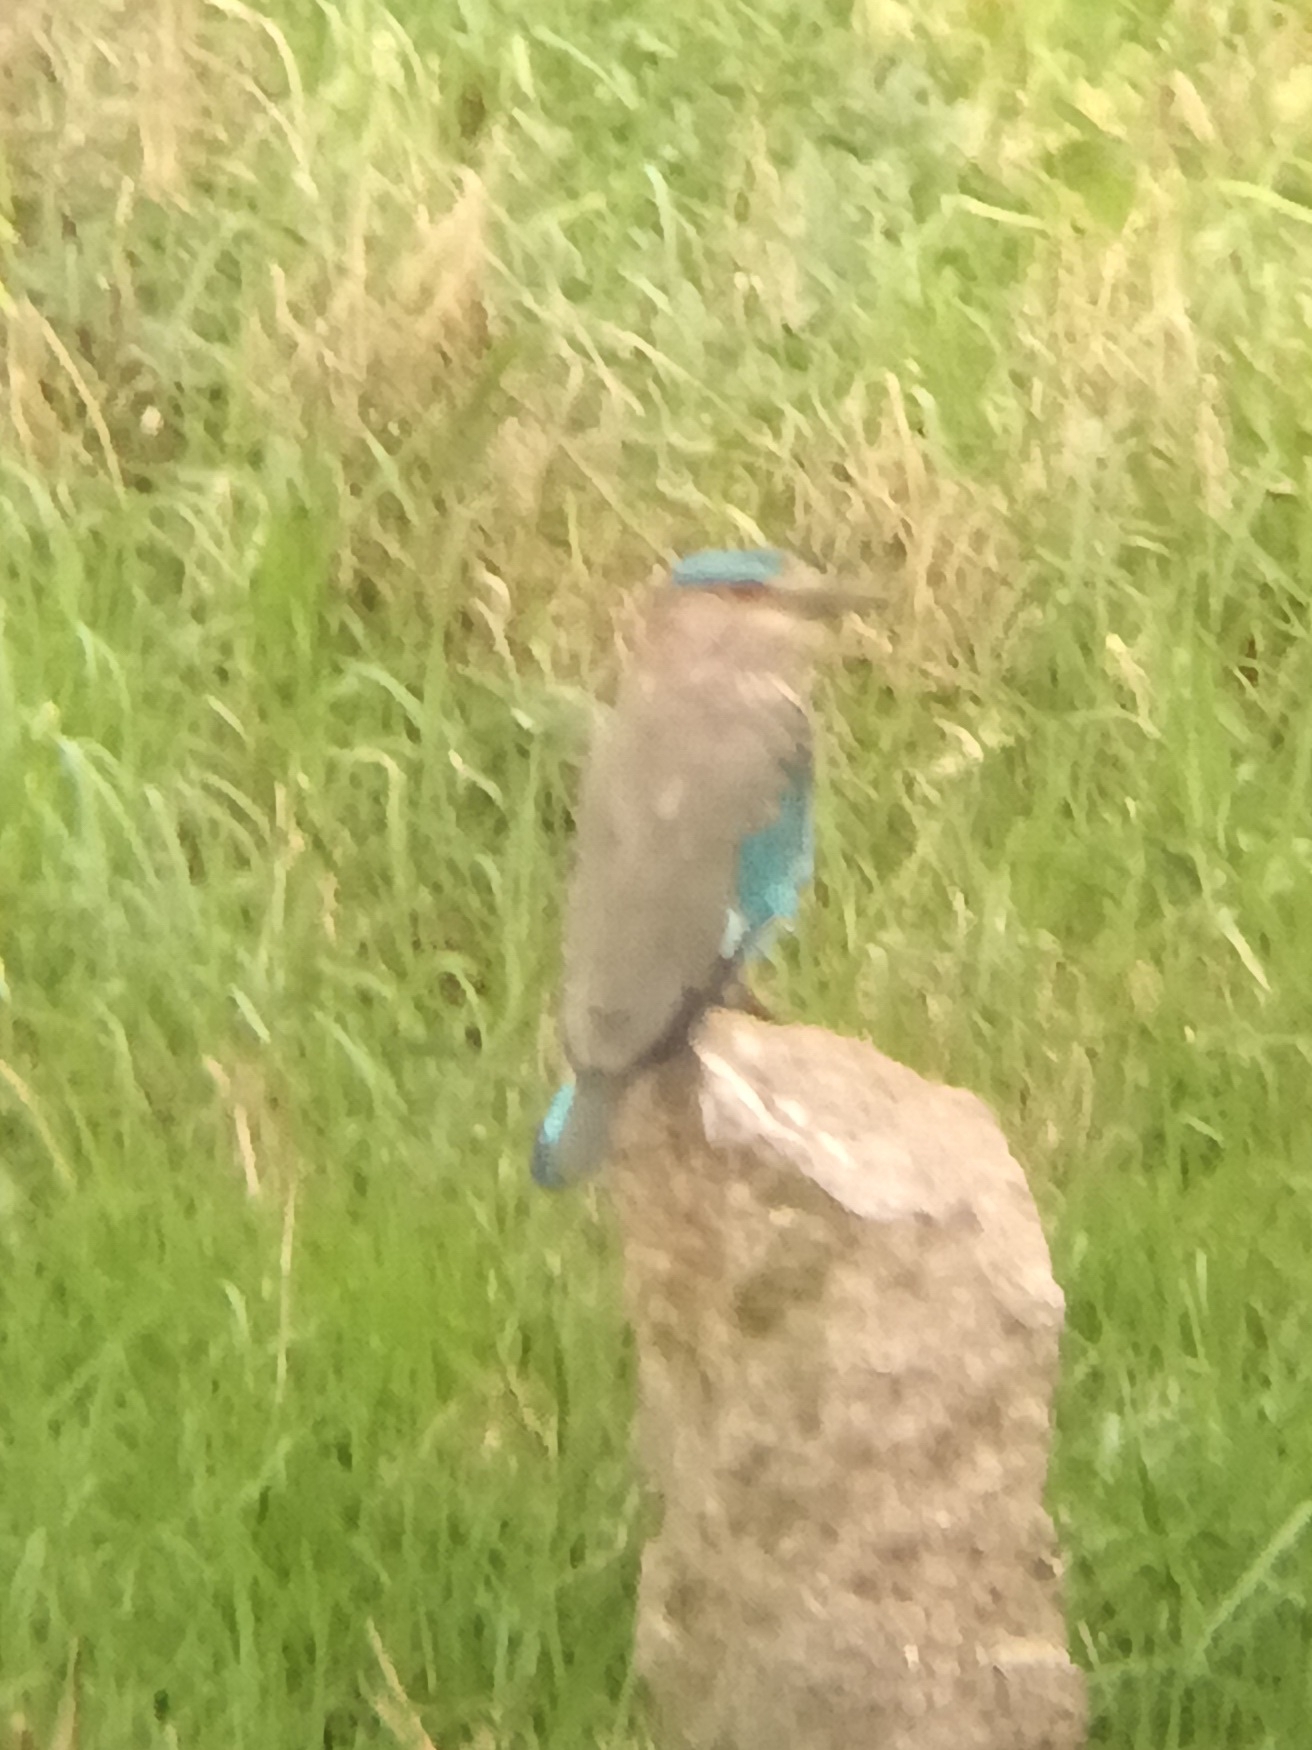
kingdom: Animalia
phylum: Chordata
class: Aves
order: Coraciiformes
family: Coraciidae
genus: Coracias
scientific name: Coracias benghalensis
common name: Indian roller
